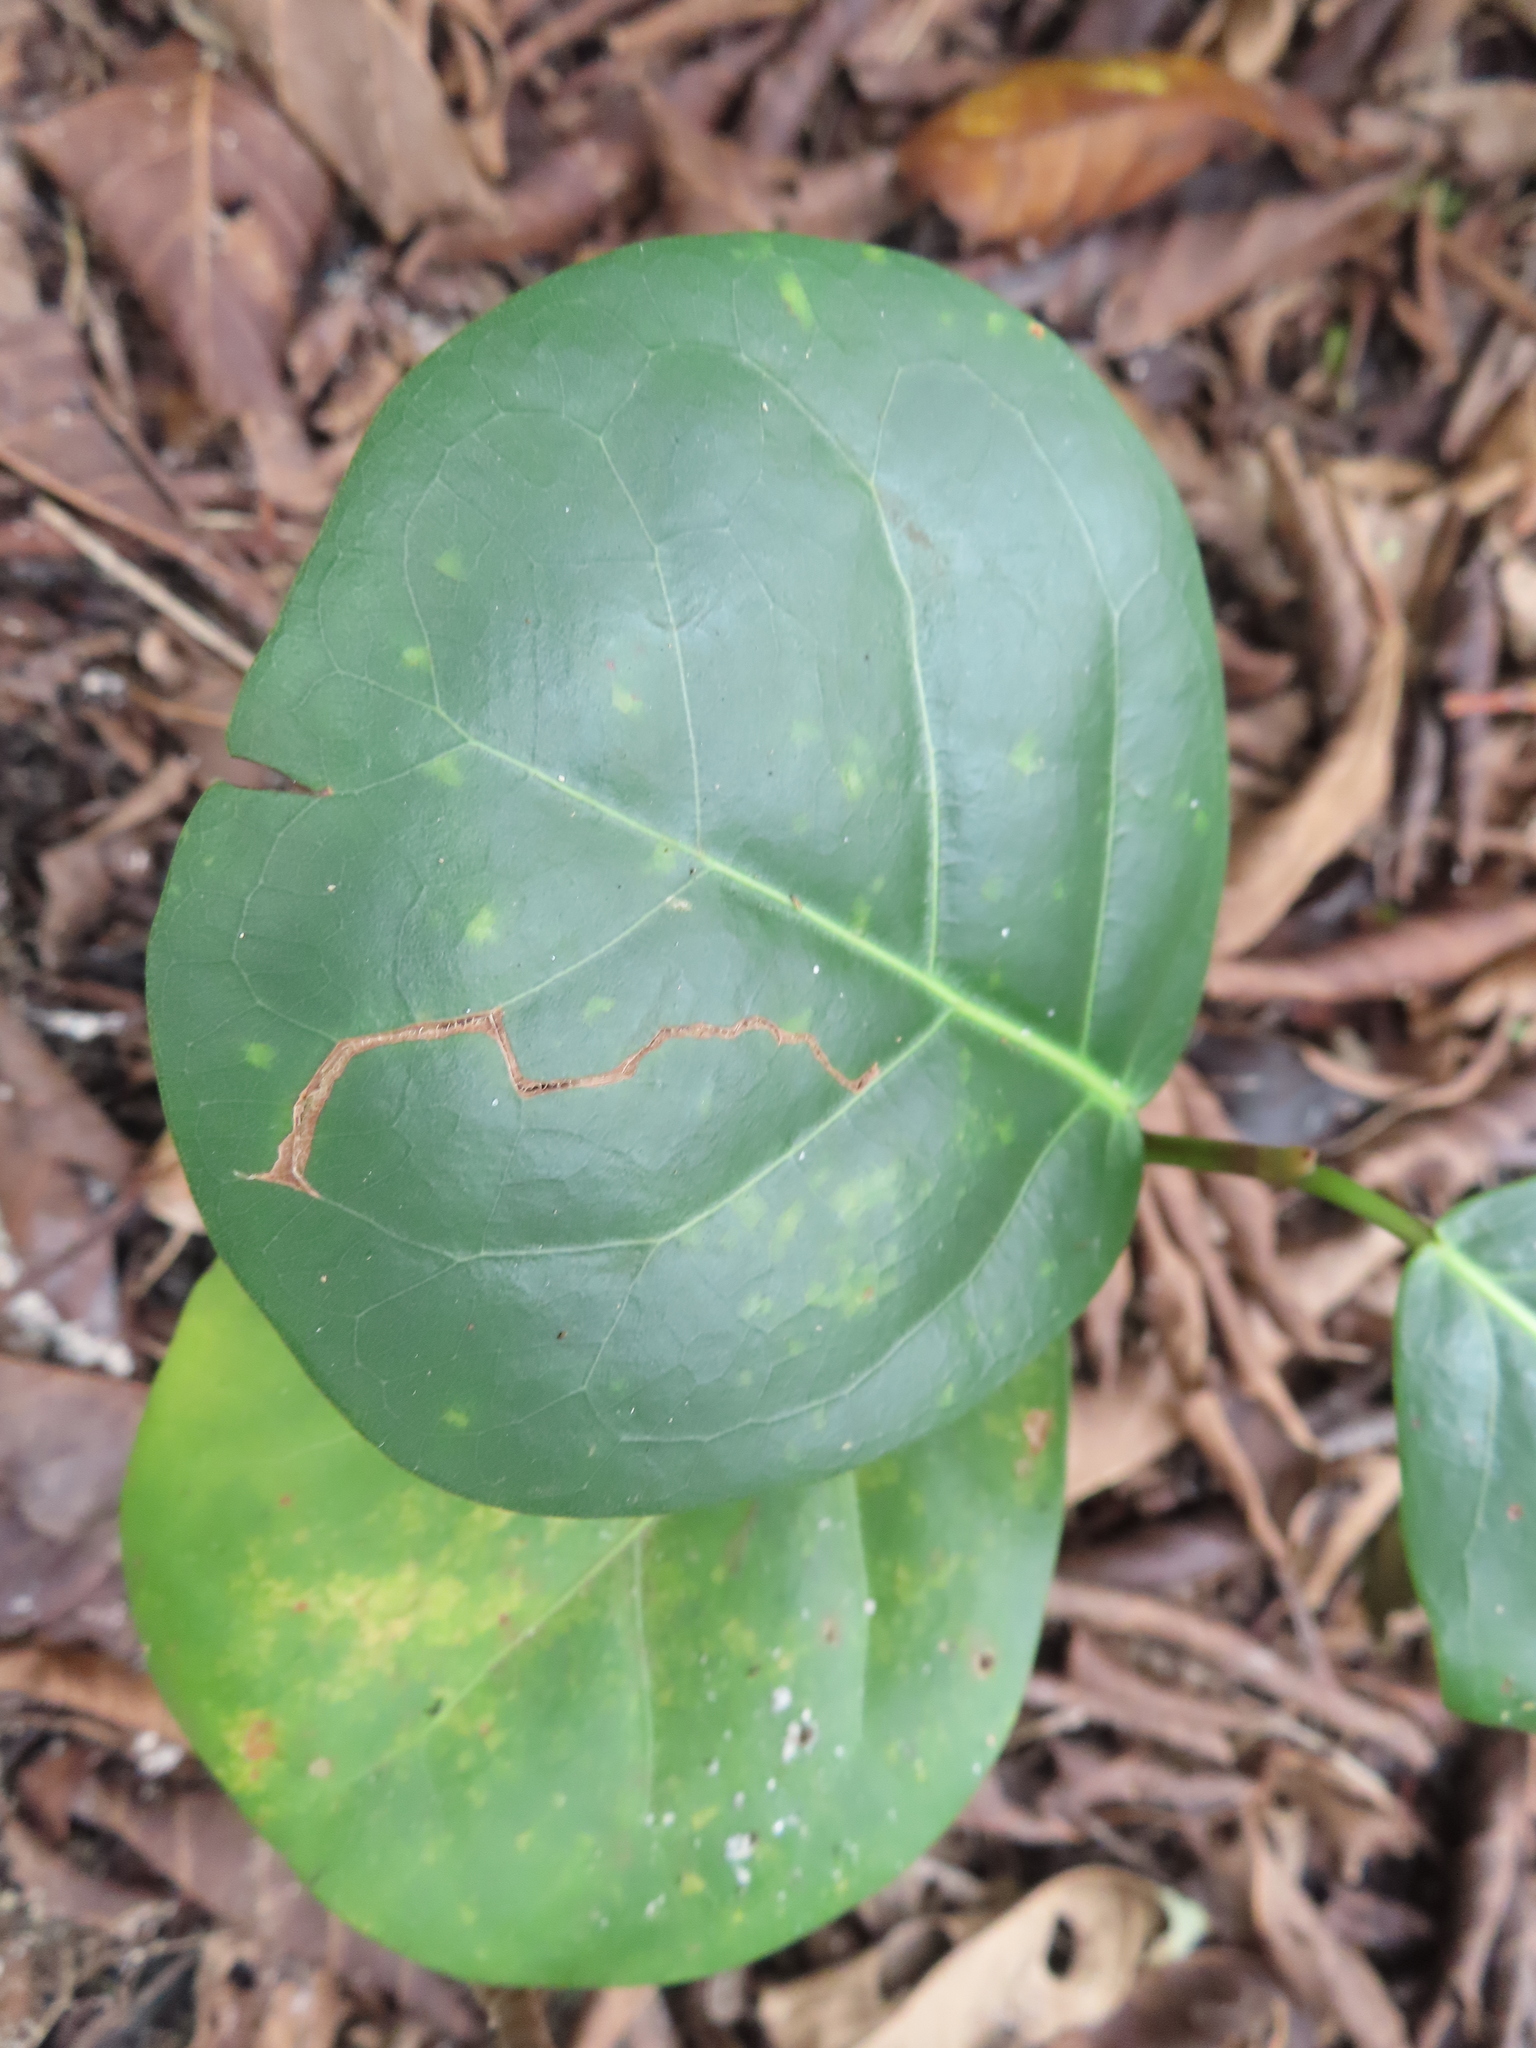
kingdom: Plantae
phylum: Tracheophyta
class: Magnoliopsida
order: Caryophyllales
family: Polygonaceae
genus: Coccoloba
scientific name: Coccoloba uvifera
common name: Seagrape
